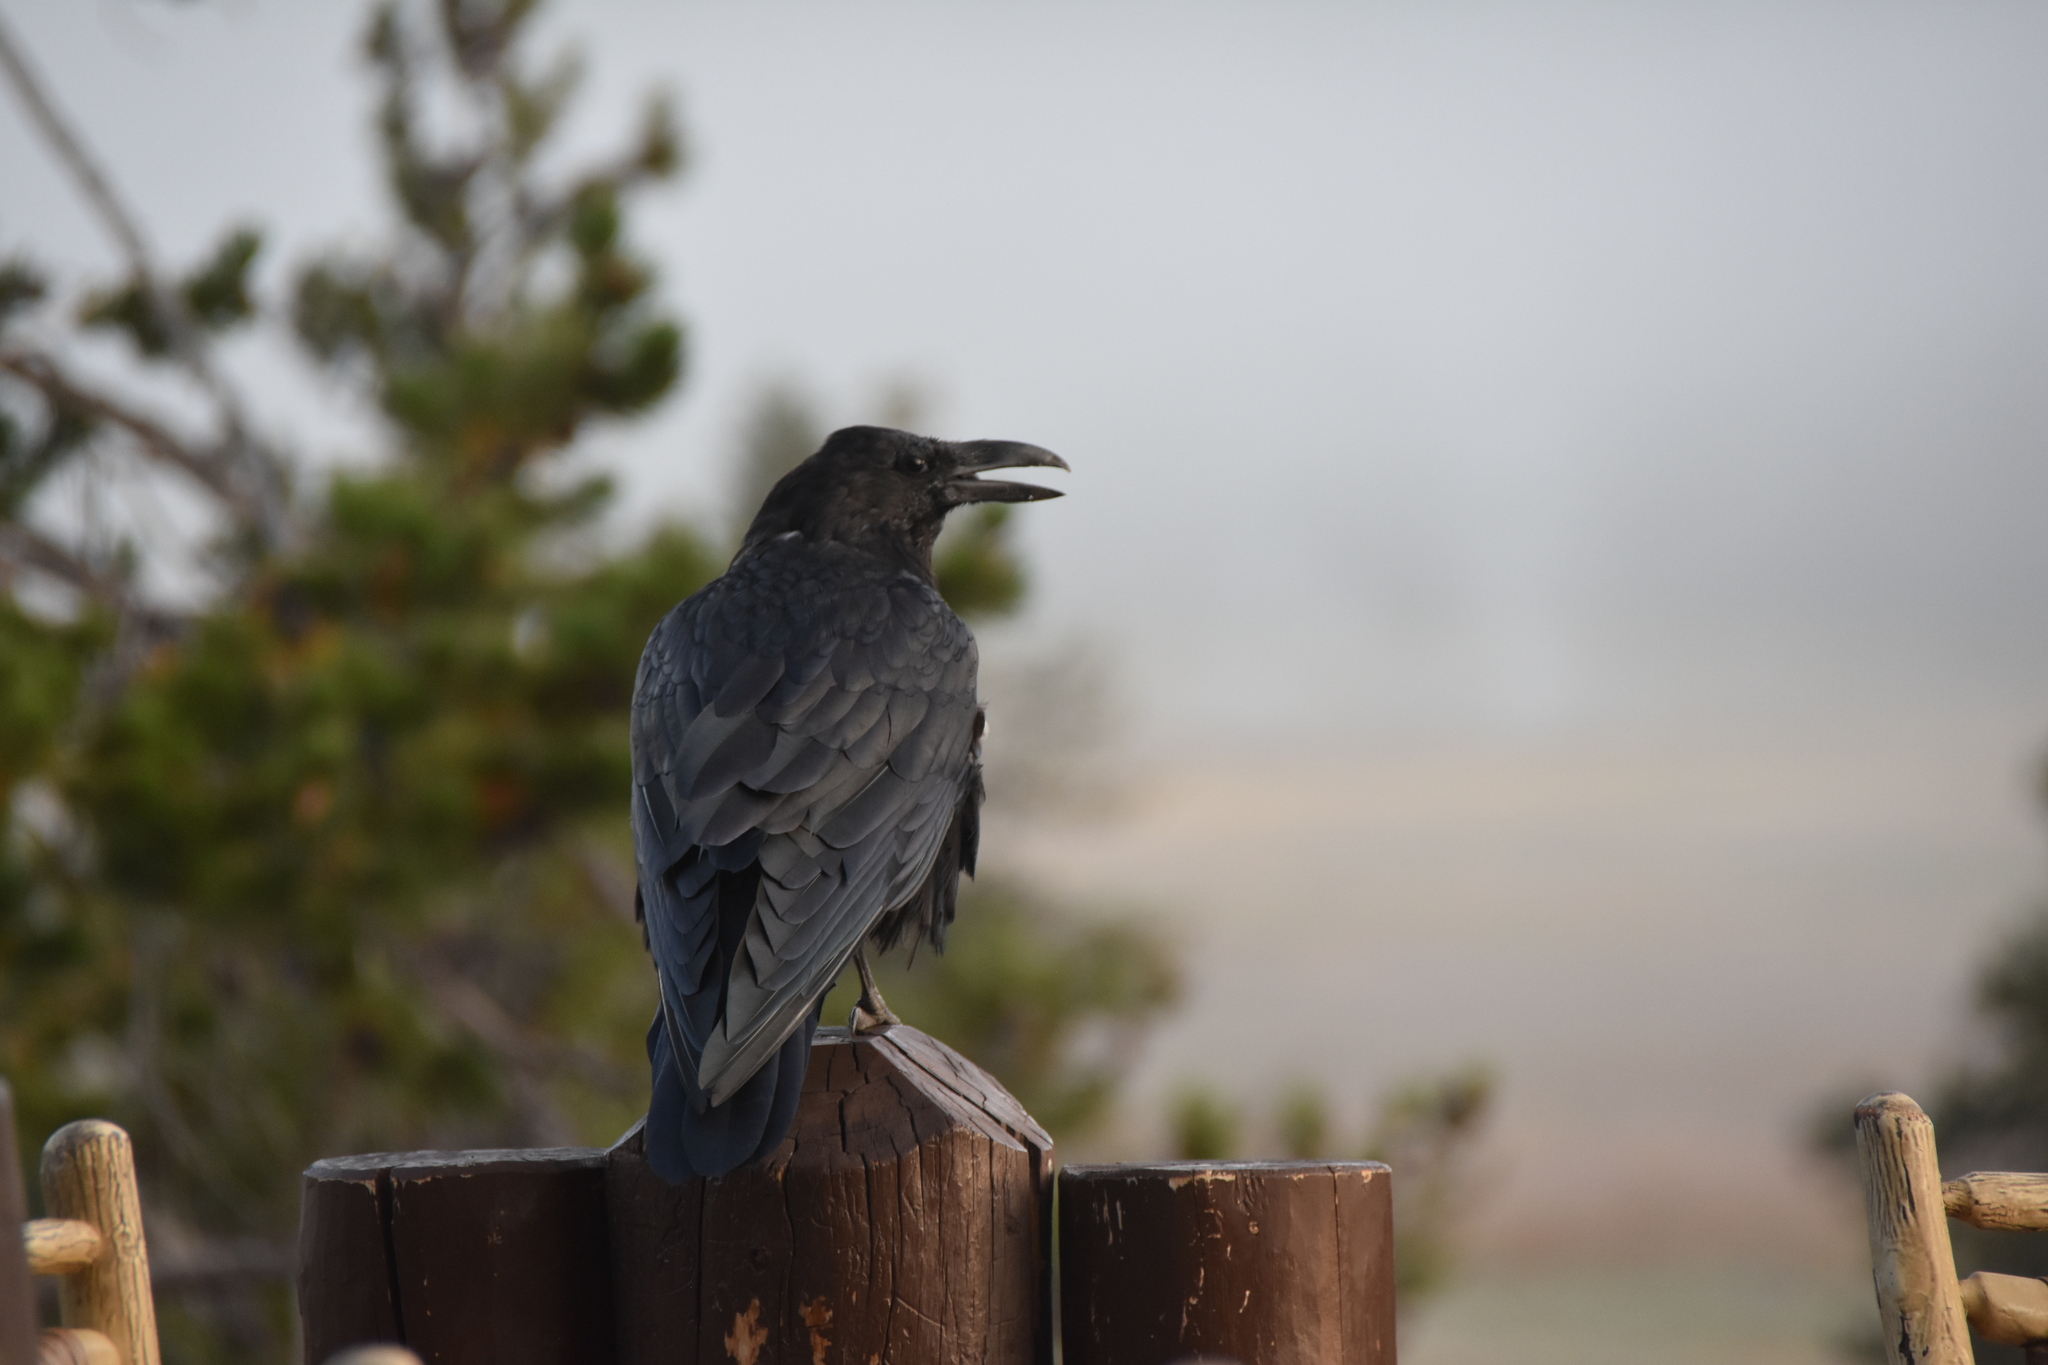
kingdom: Animalia
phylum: Chordata
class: Aves
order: Passeriformes
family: Corvidae
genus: Corvus
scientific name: Corvus corax
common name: Common raven
